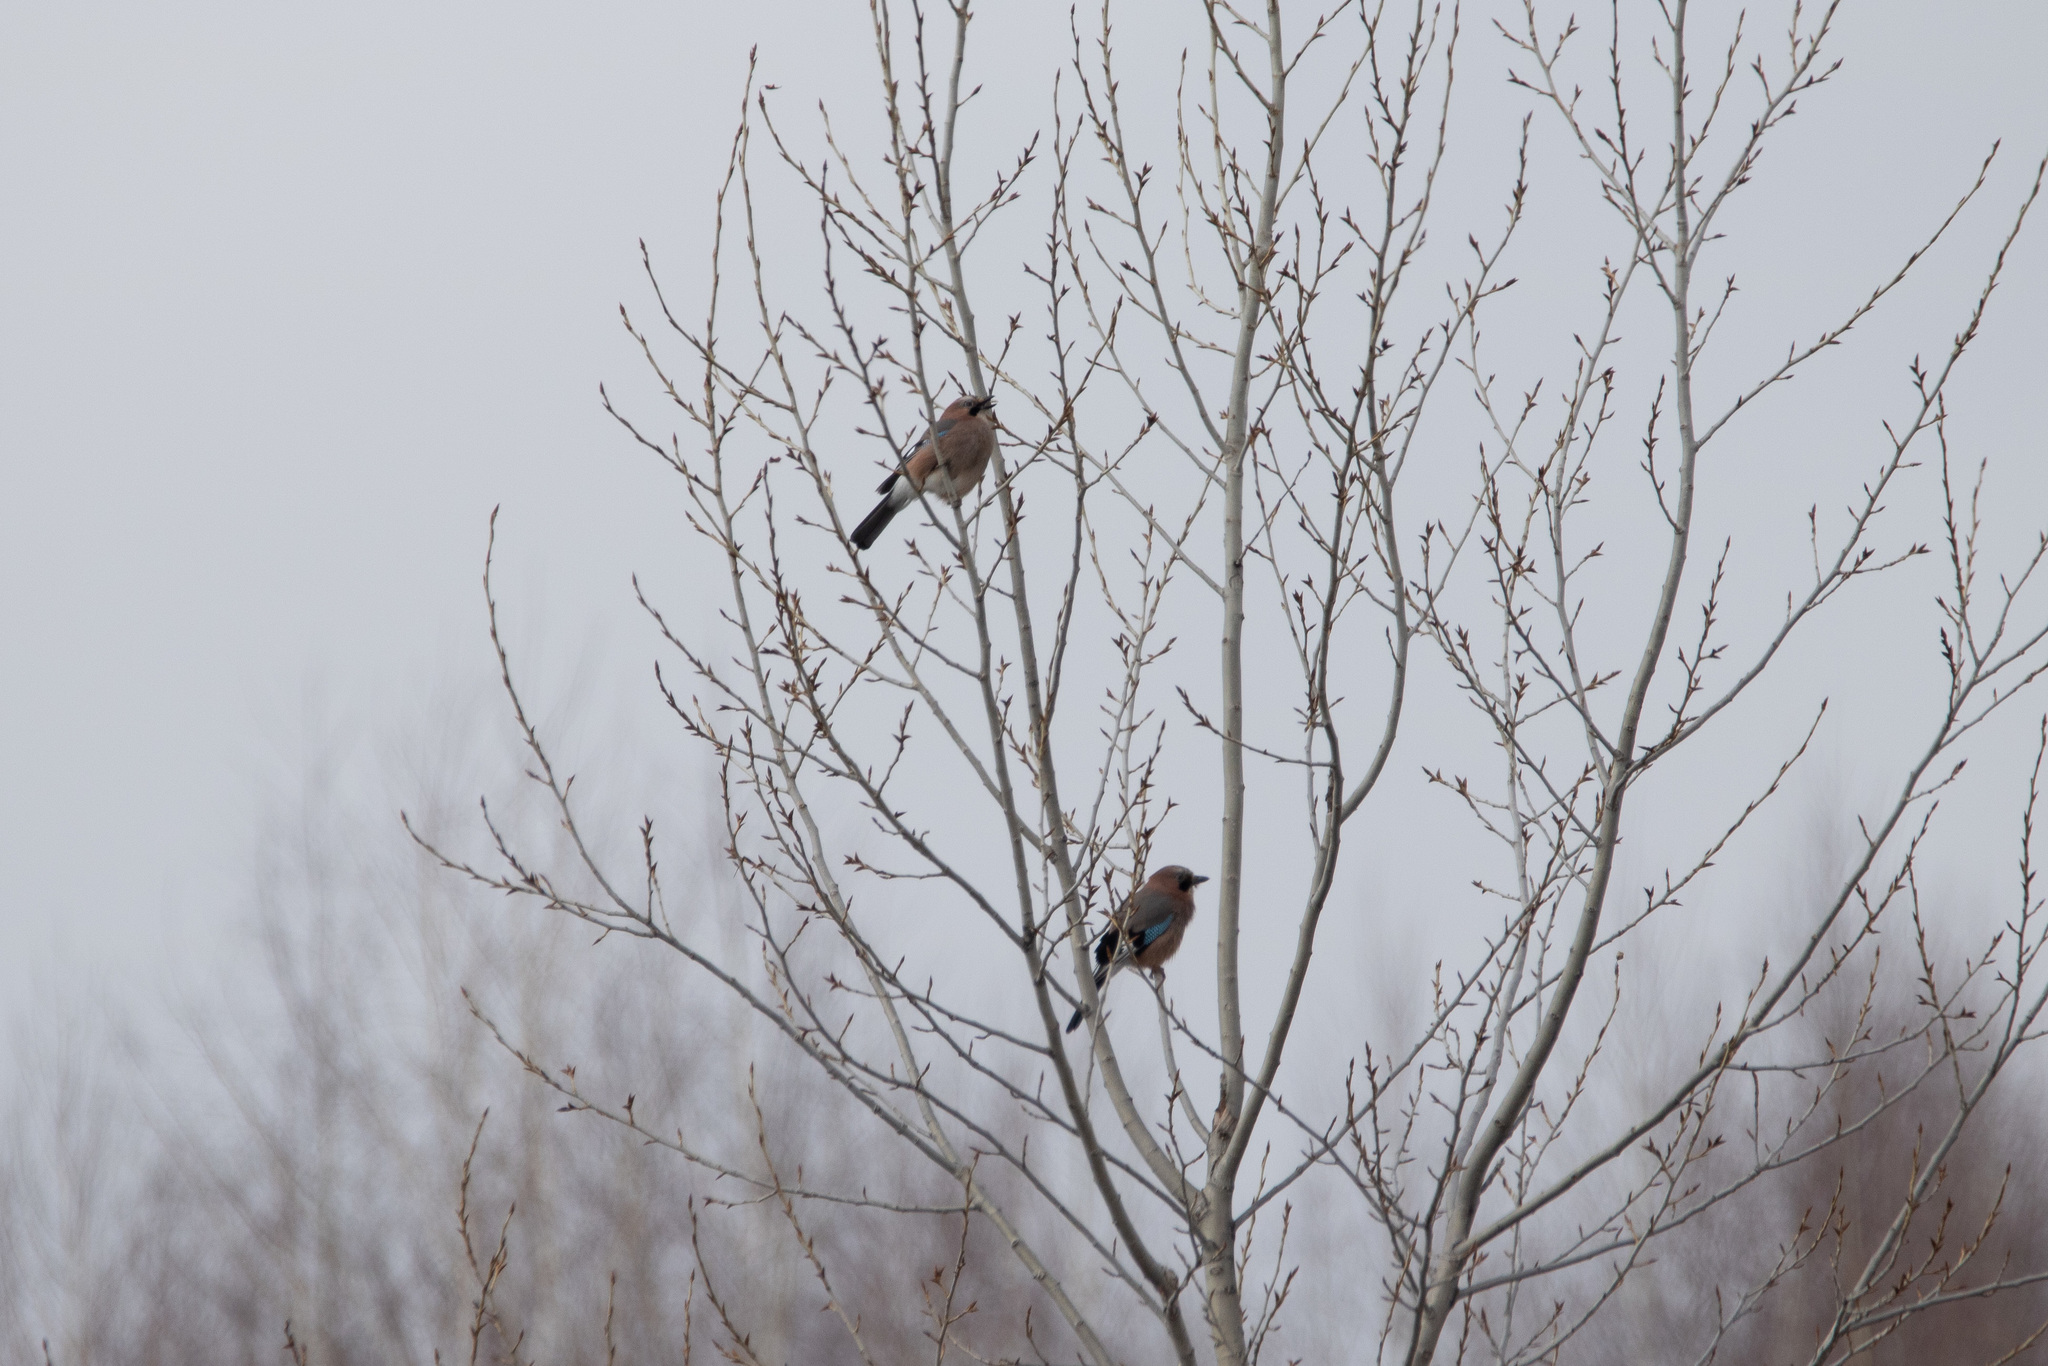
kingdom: Animalia
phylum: Chordata
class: Aves
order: Passeriformes
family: Corvidae
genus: Garrulus
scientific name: Garrulus glandarius
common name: Eurasian jay
